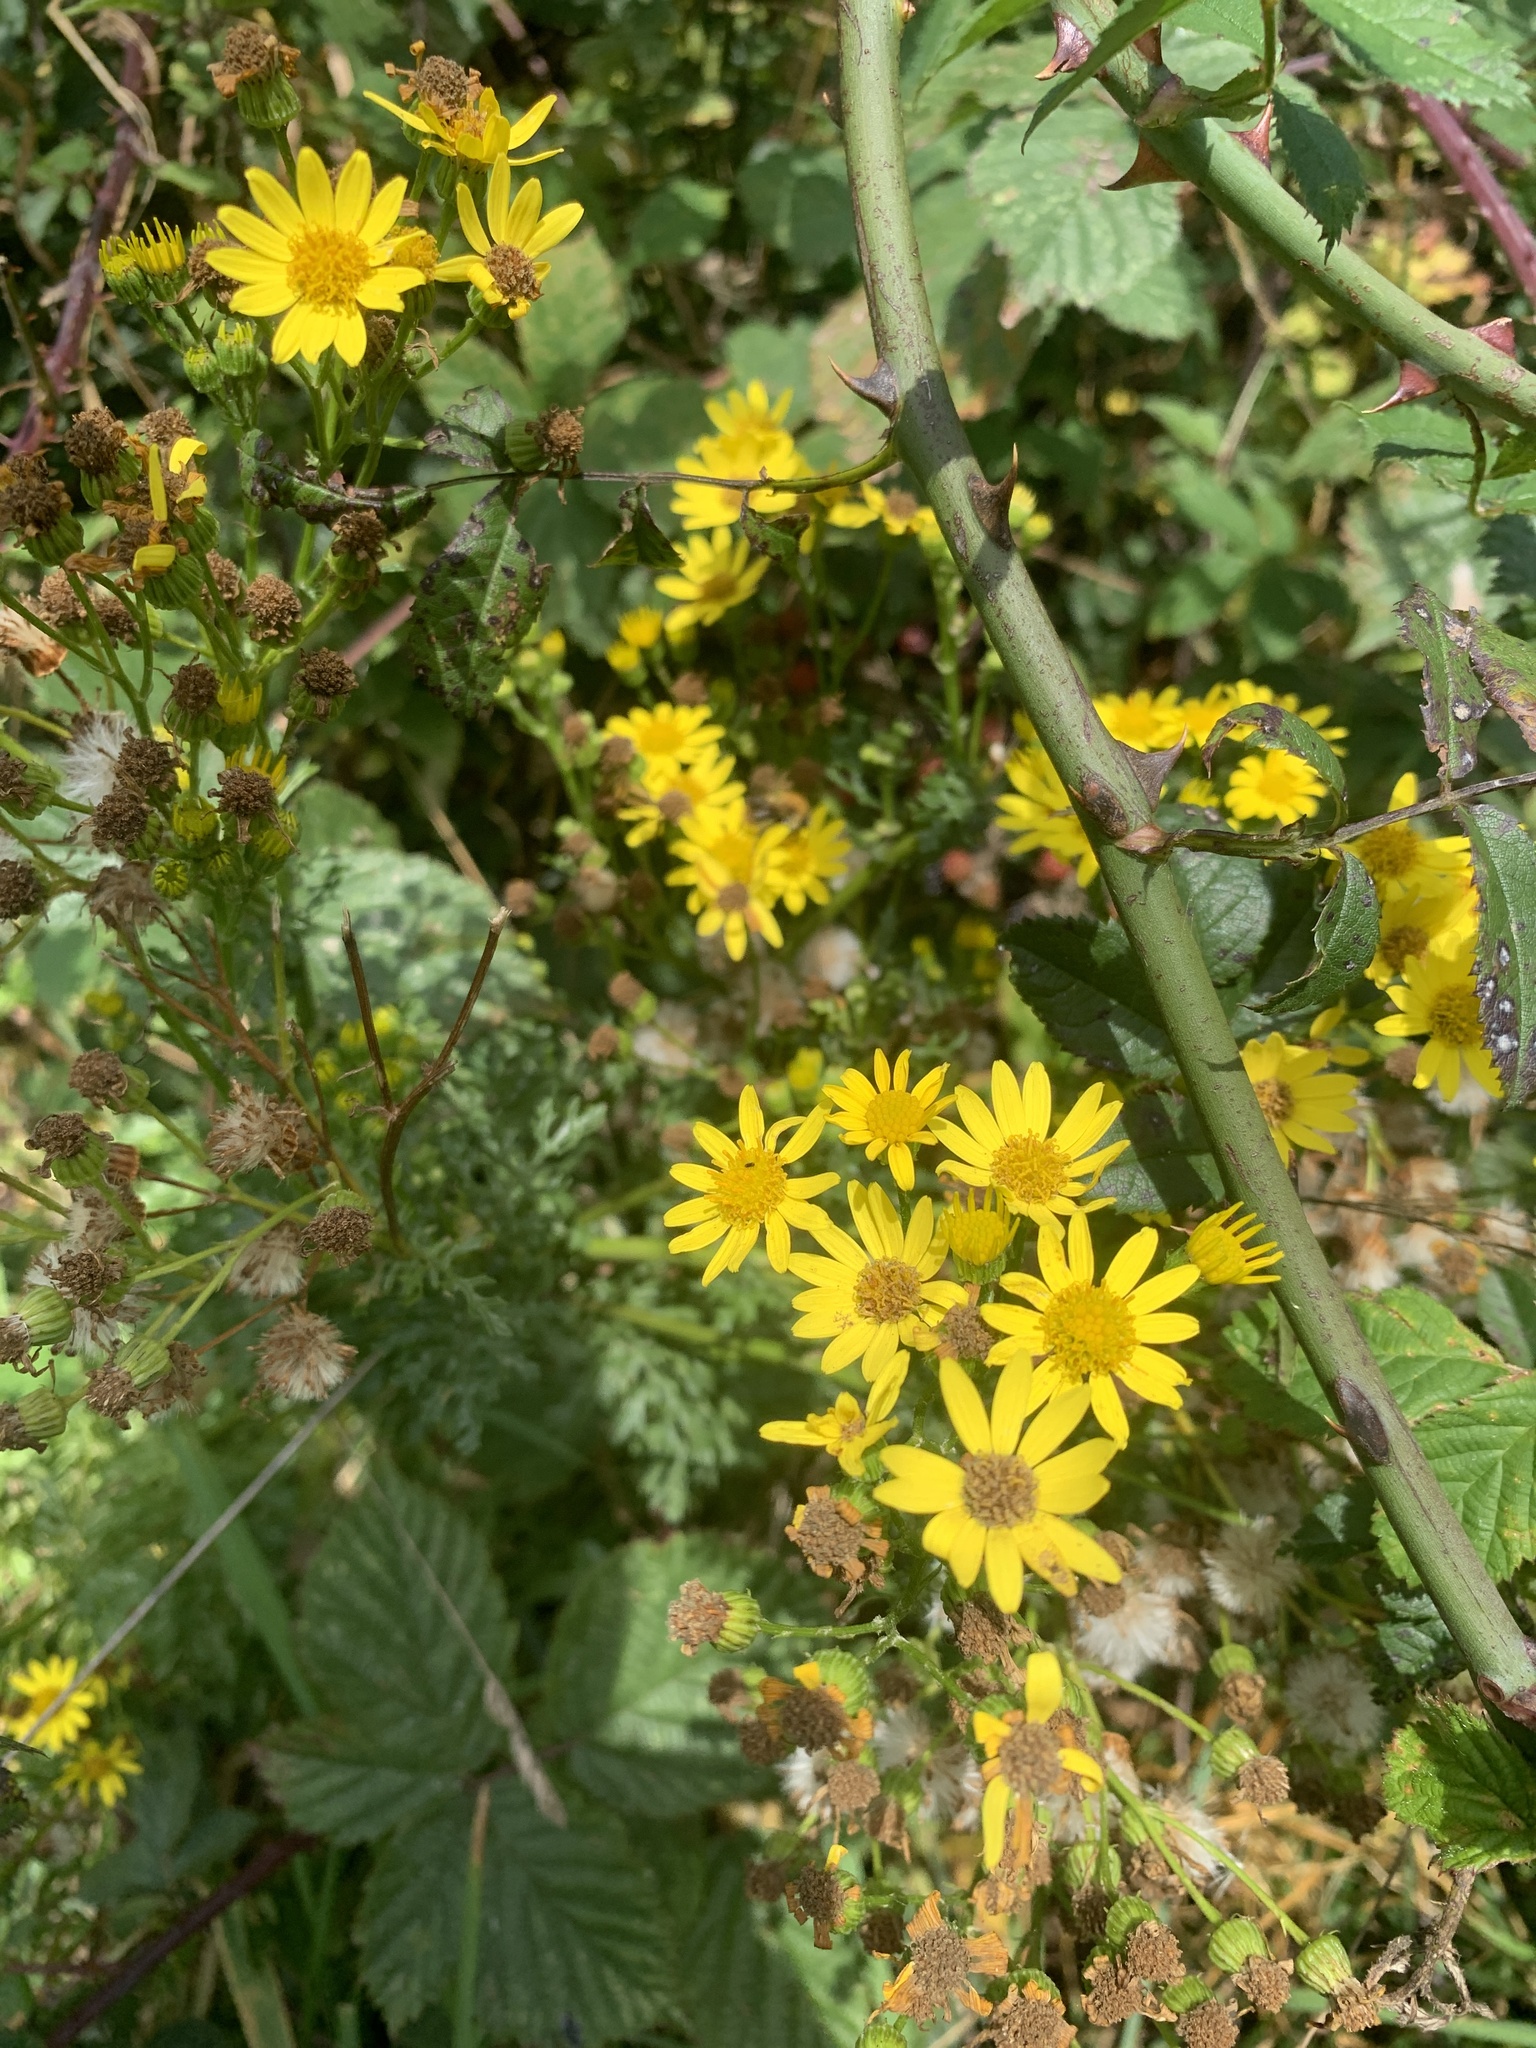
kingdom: Plantae
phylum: Tracheophyta
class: Magnoliopsida
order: Asterales
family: Asteraceae
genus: Jacobaea
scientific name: Jacobaea vulgaris
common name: Stinking willie
